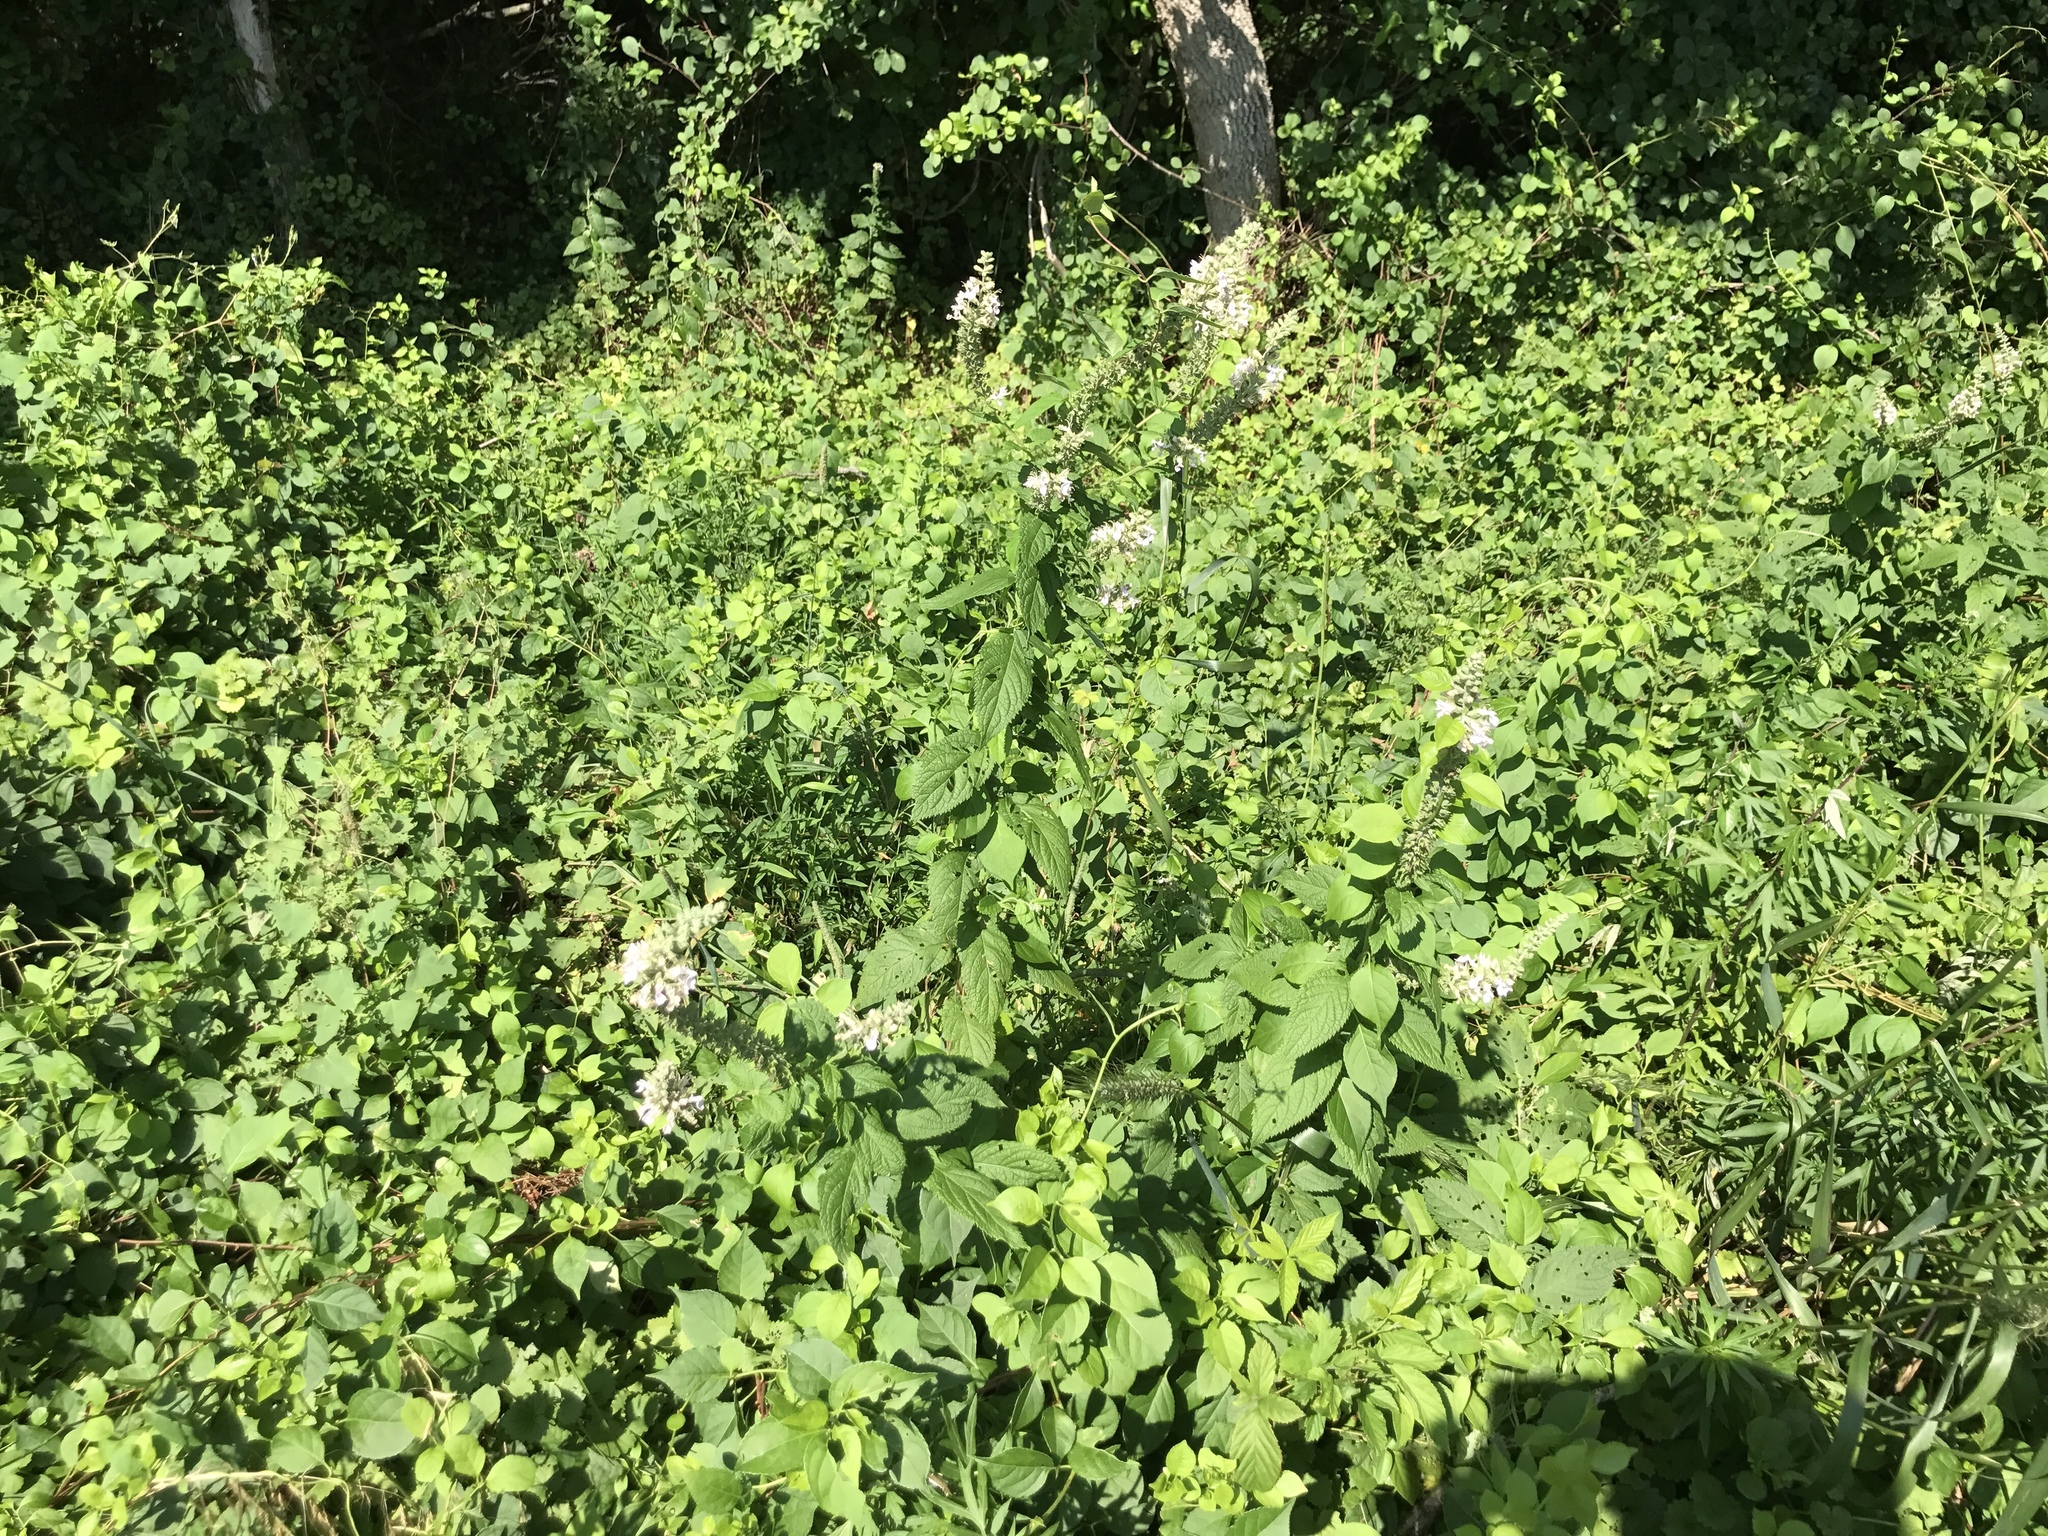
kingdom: Plantae
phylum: Tracheophyta
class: Magnoliopsida
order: Lamiales
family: Lamiaceae
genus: Teucrium
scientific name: Teucrium canadense
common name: American germander
